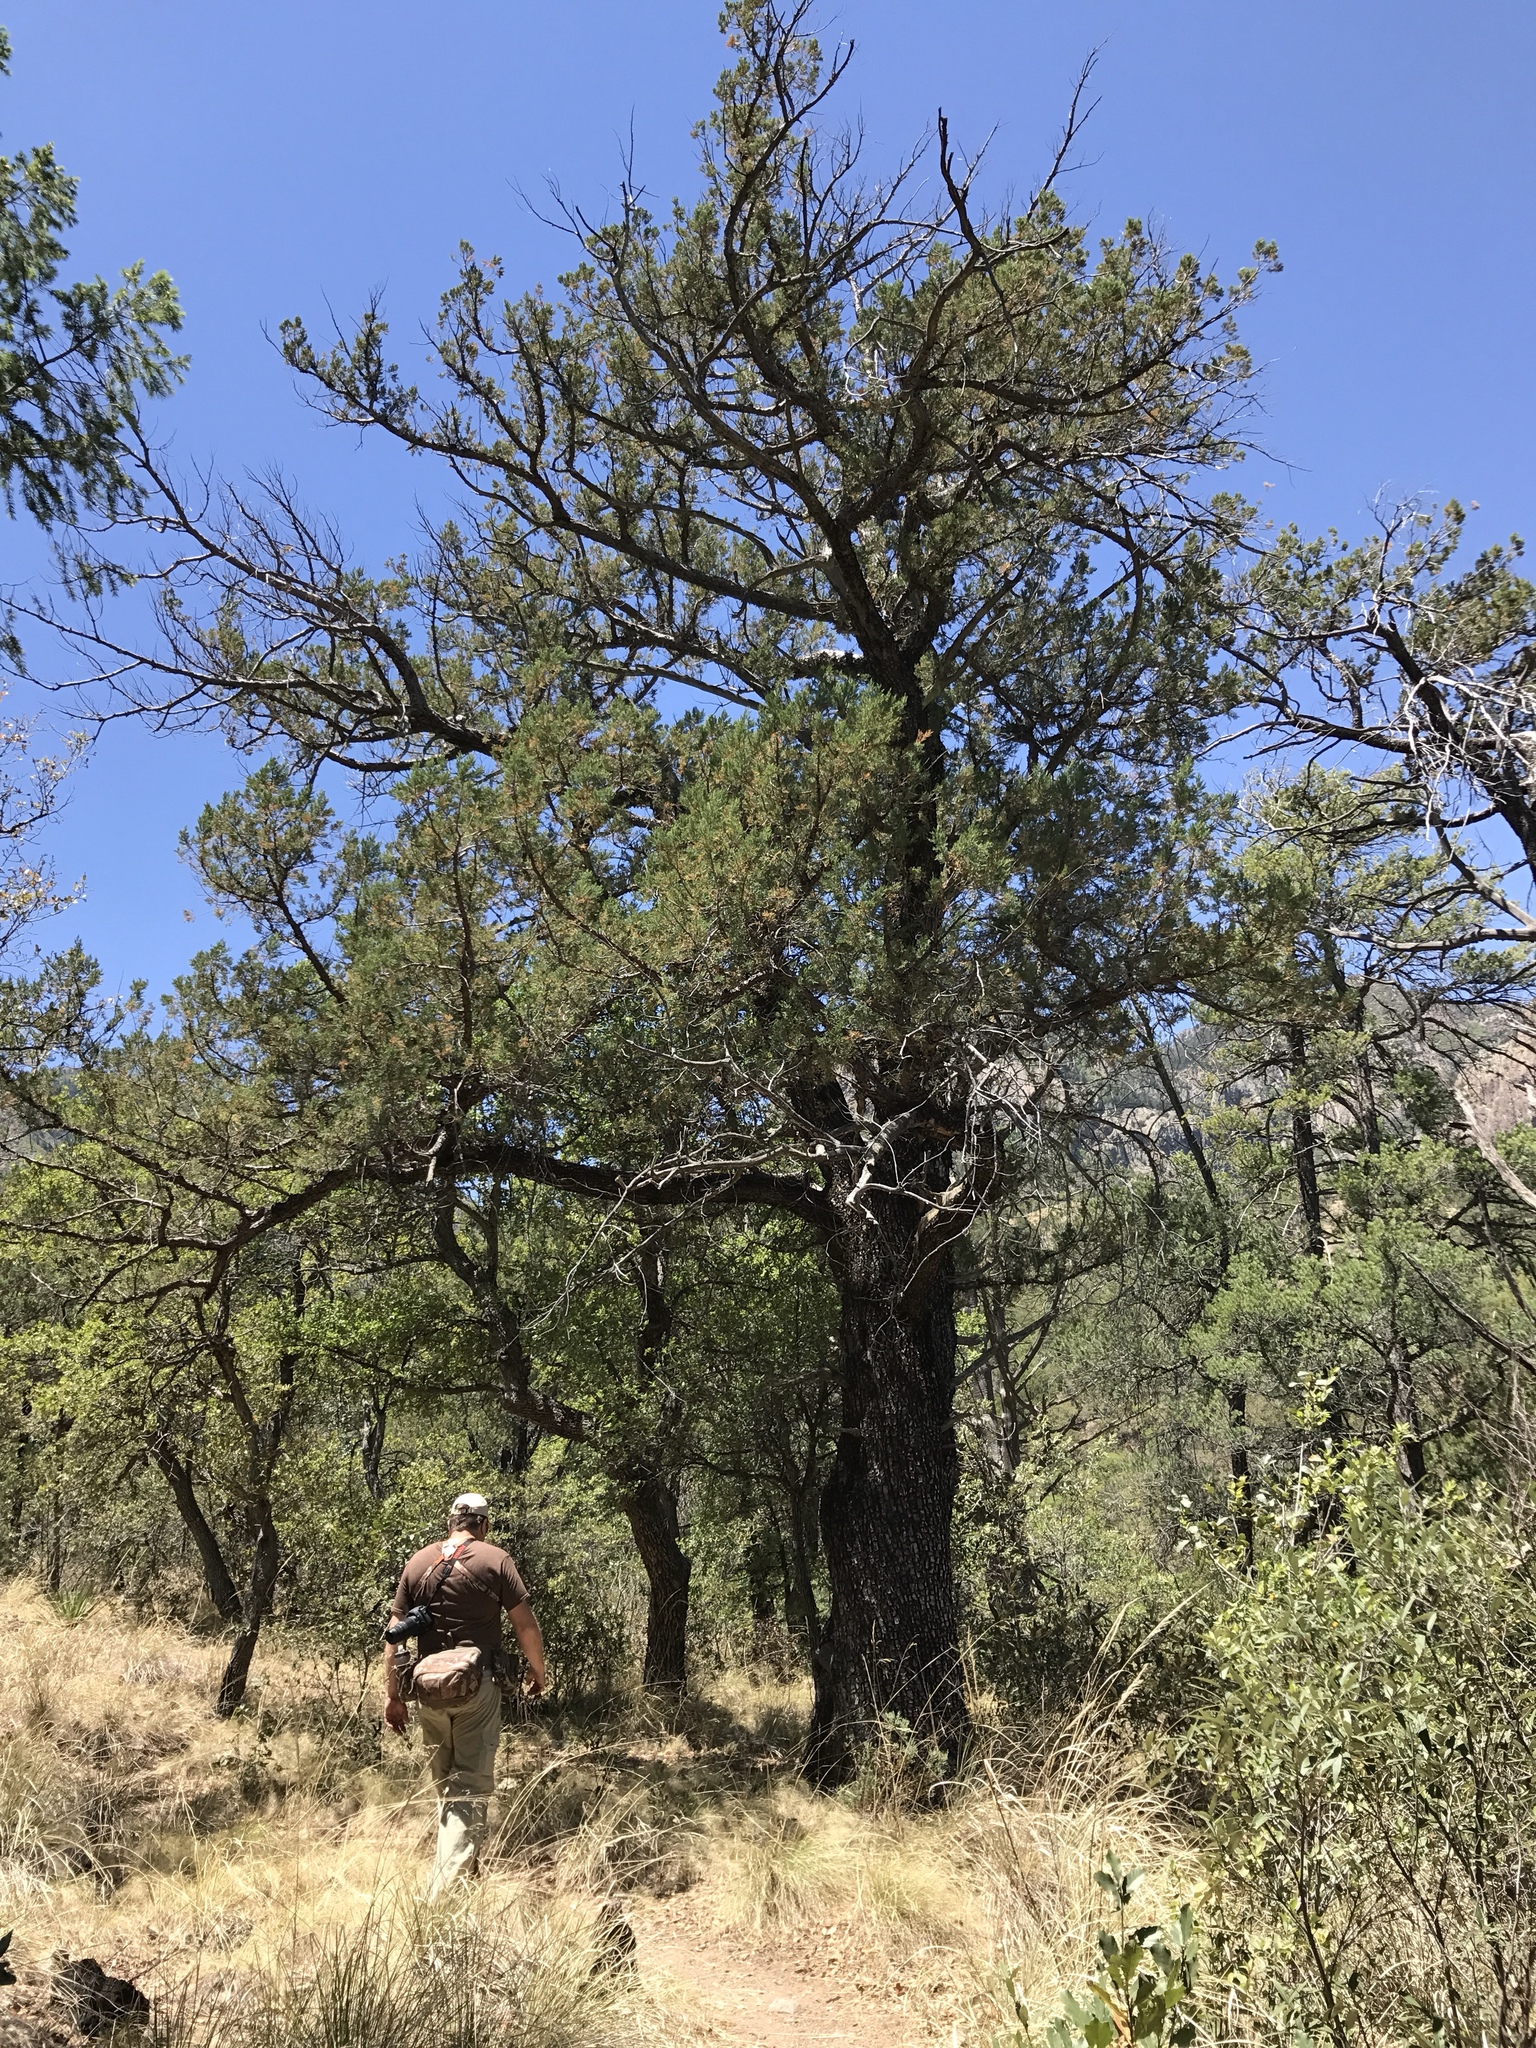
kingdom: Plantae
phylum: Tracheophyta
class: Pinopsida
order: Pinales
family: Cupressaceae
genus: Juniperus
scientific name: Juniperus deppeana
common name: Alligator juniper
